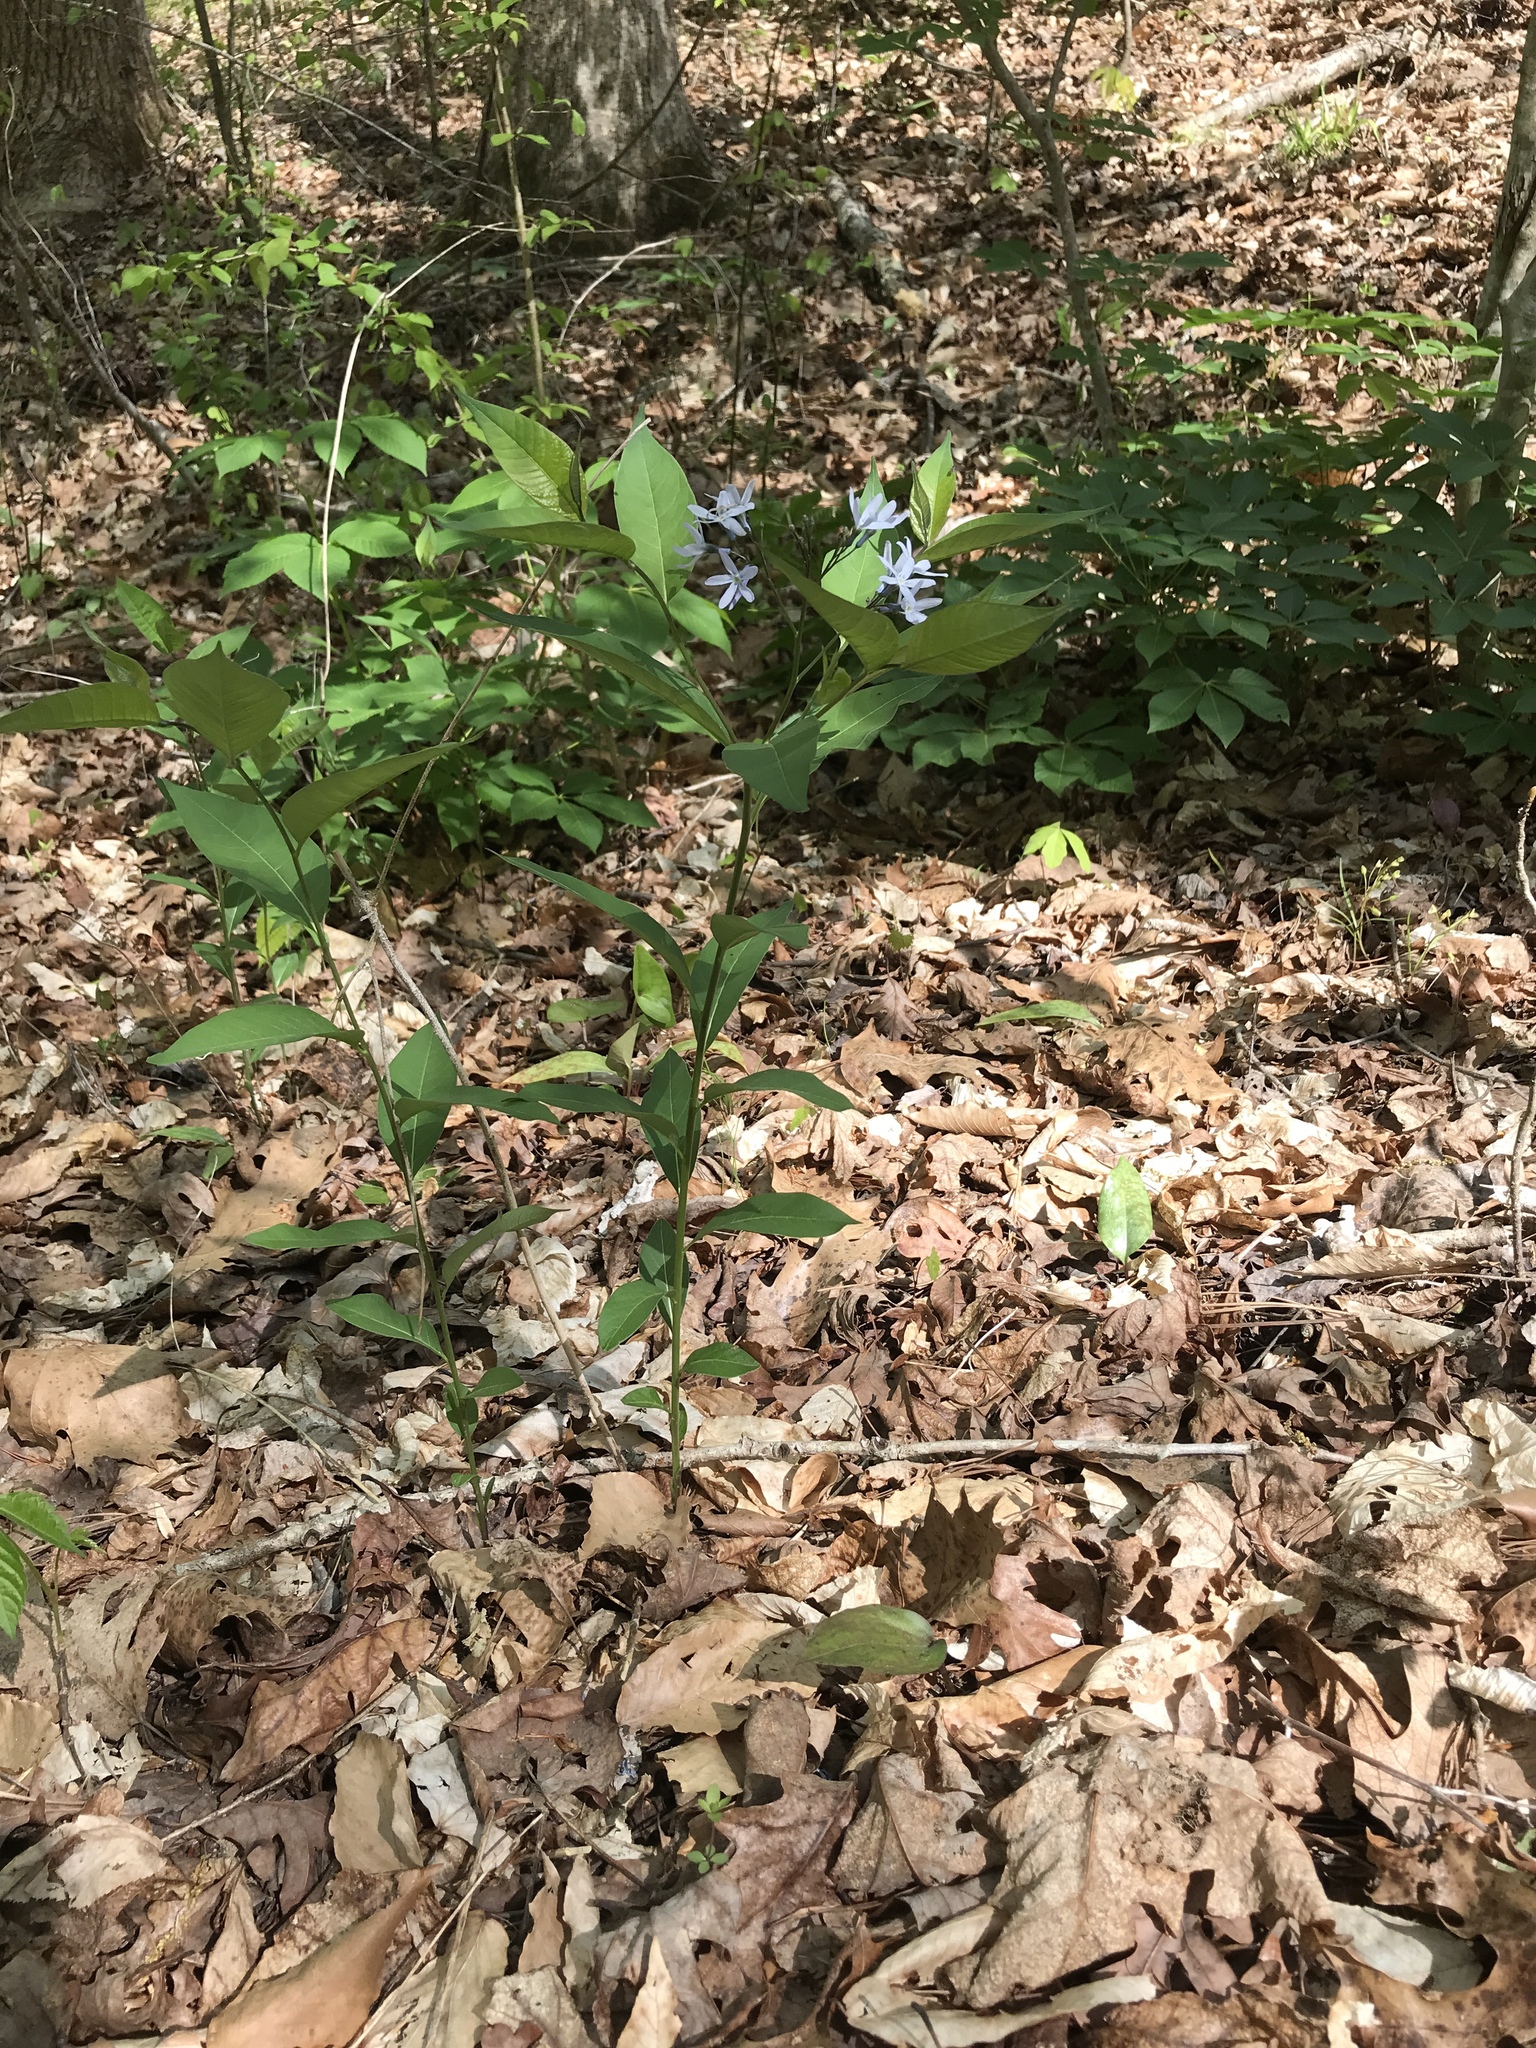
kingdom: Plantae
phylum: Tracheophyta
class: Magnoliopsida
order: Gentianales
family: Apocynaceae
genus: Amsonia
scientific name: Amsonia tabernaemontana
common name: Texas-star
